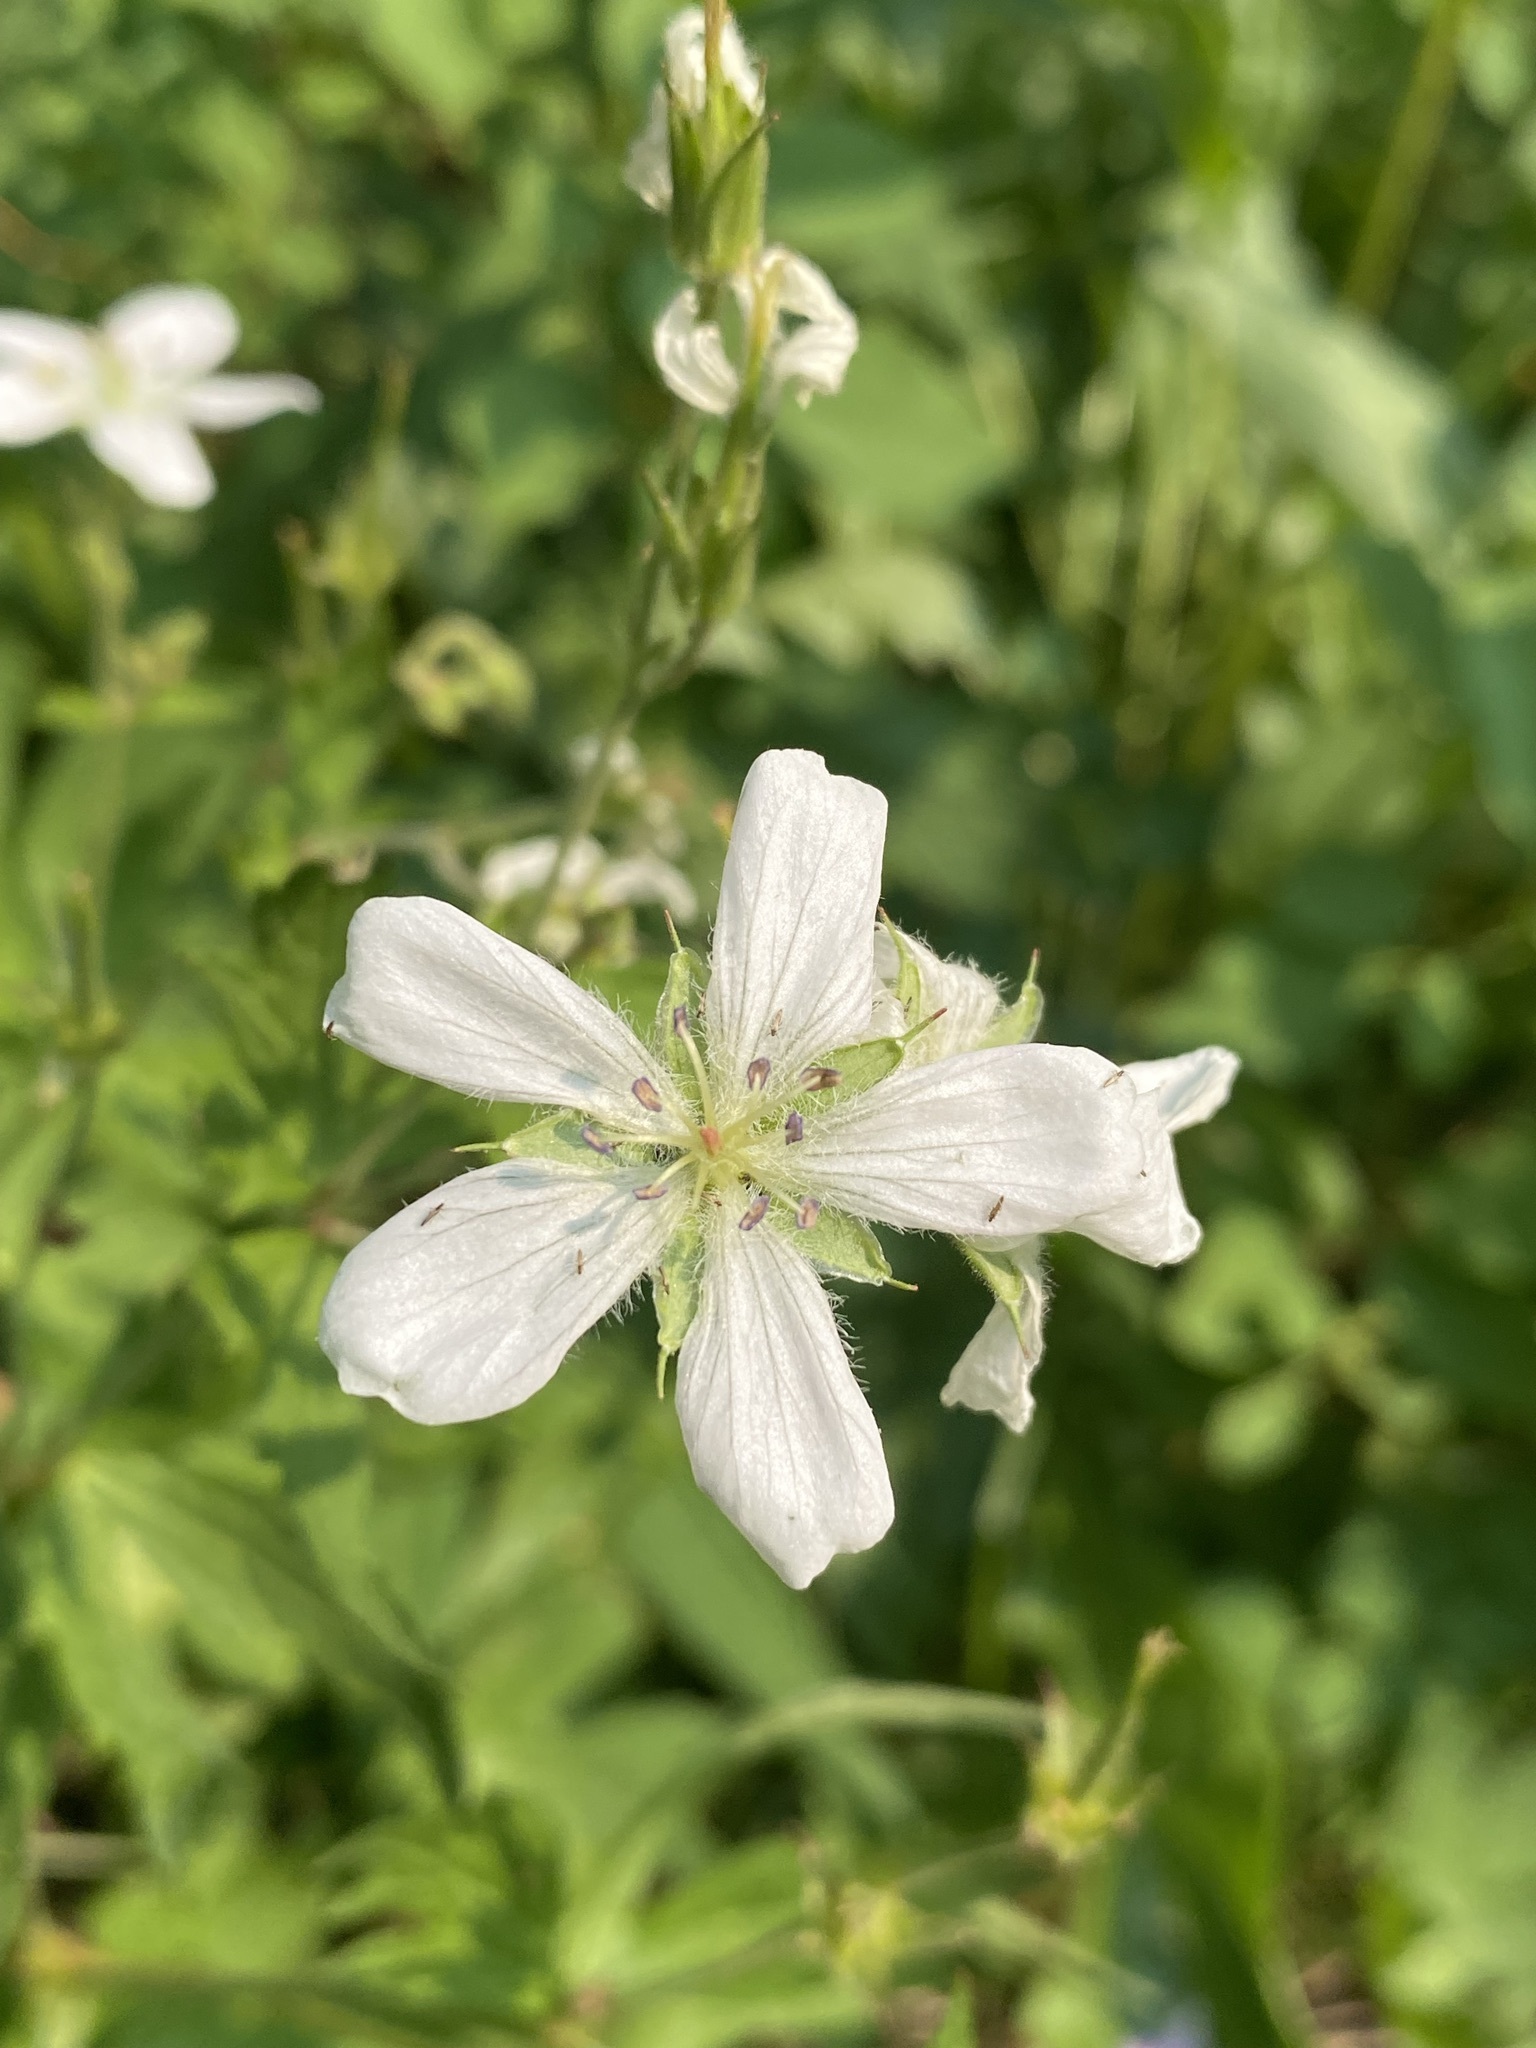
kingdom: Plantae
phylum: Tracheophyta
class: Magnoliopsida
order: Geraniales
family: Geraniaceae
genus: Geranium
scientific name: Geranium richardsonii
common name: Richardson's crane's-bill
